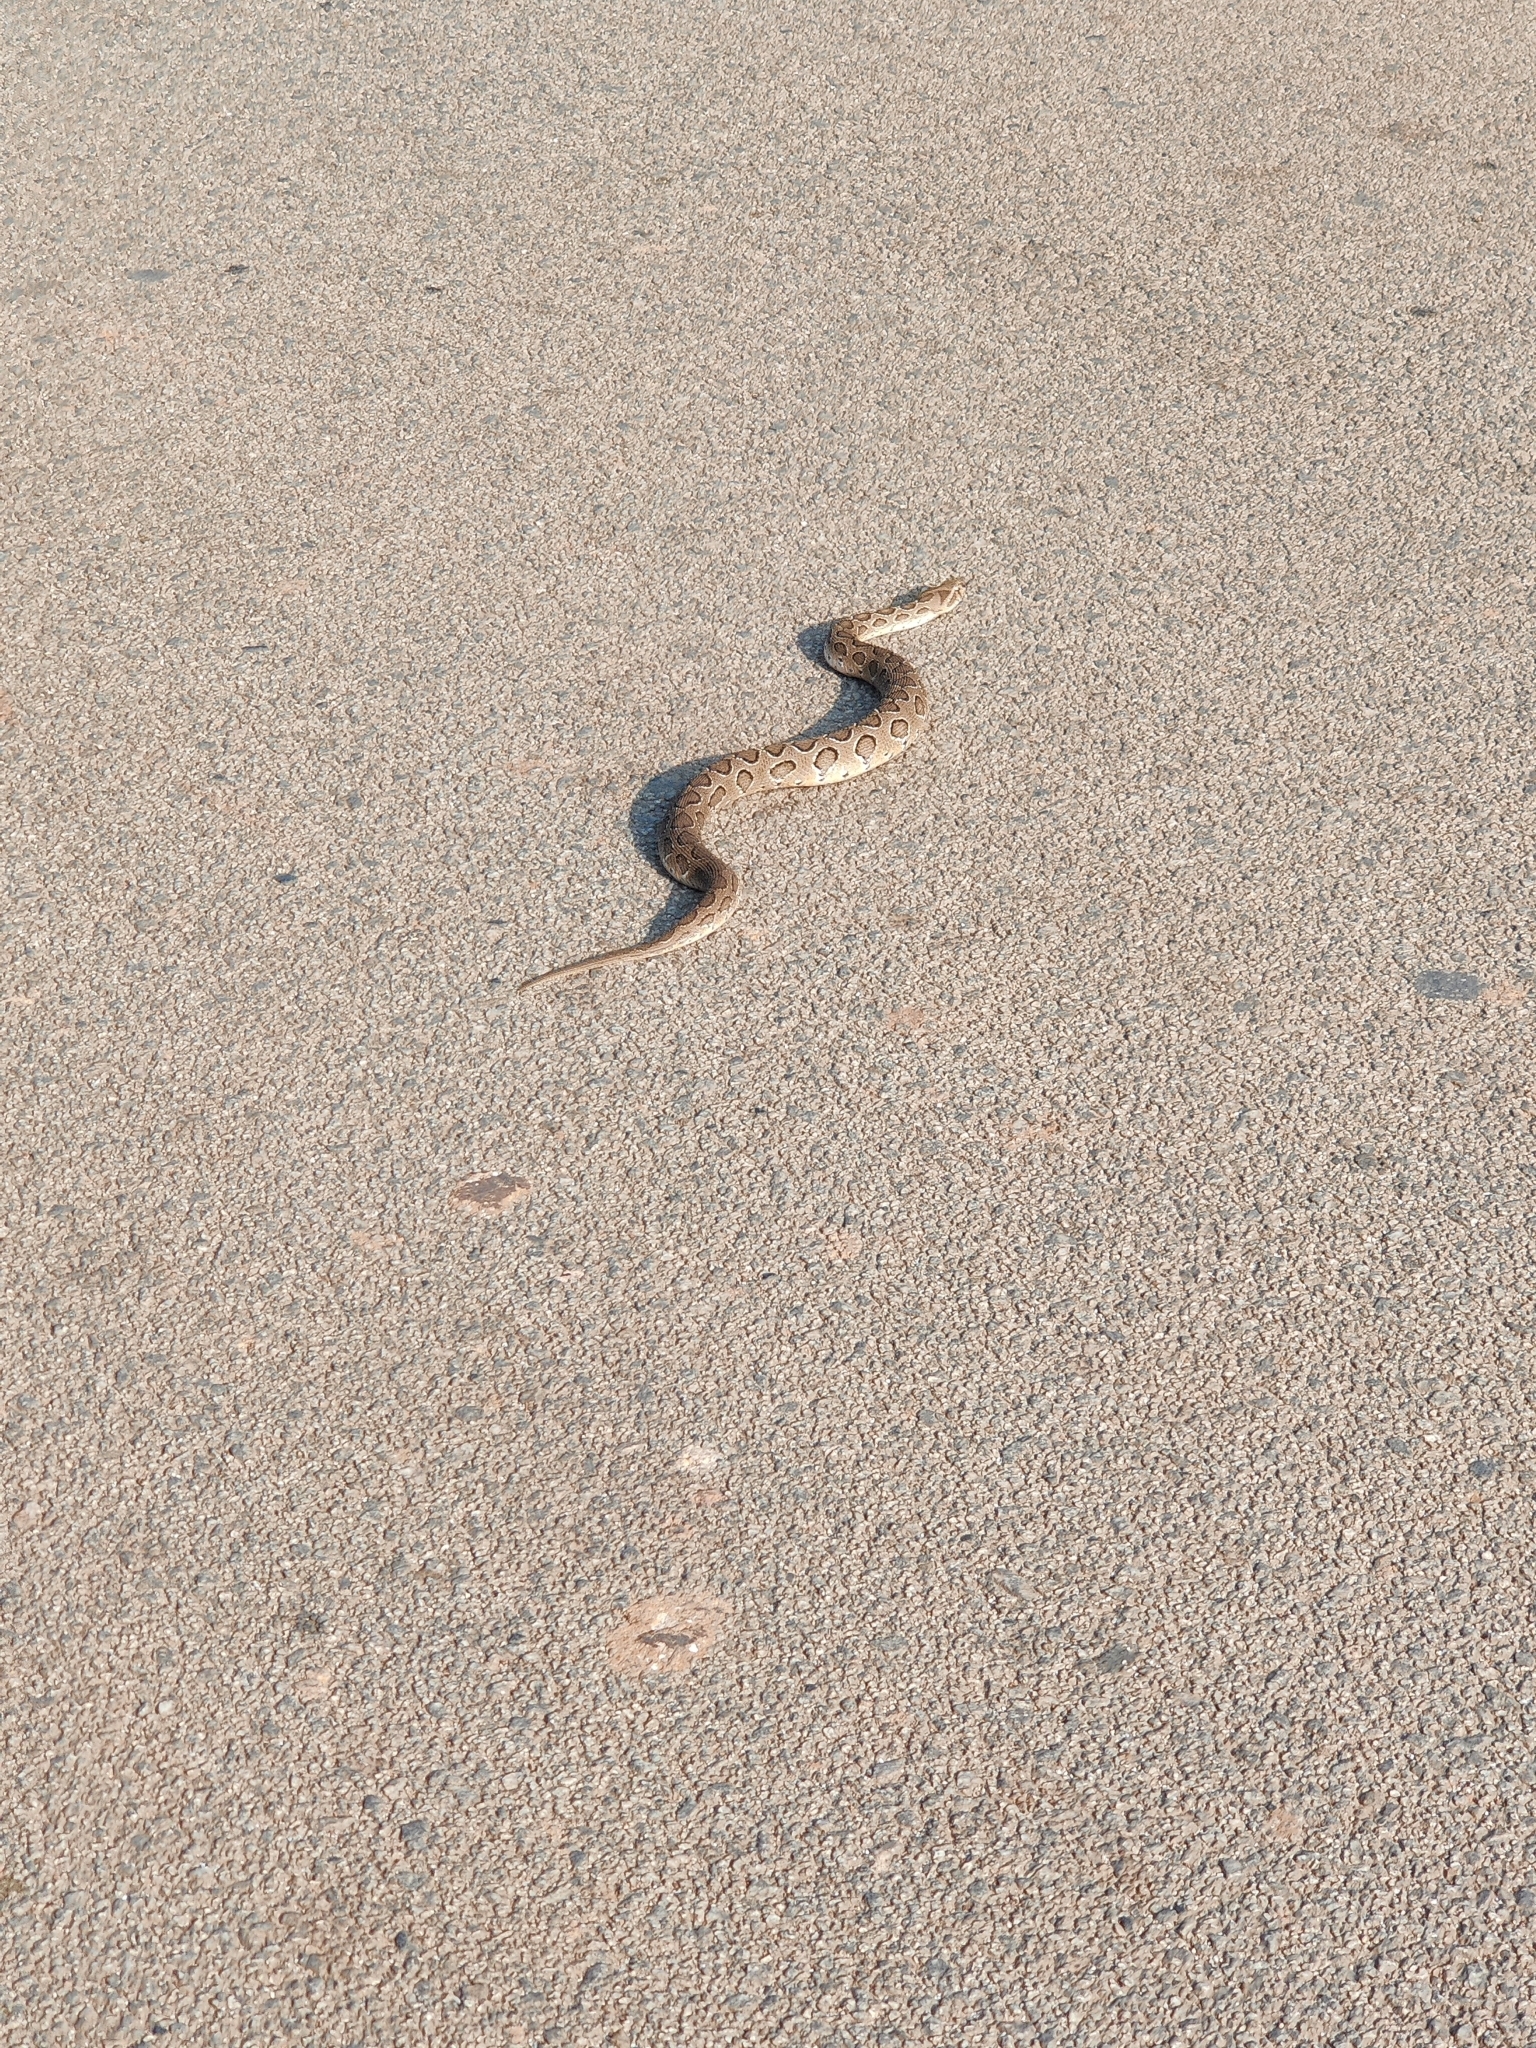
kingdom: Animalia
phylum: Chordata
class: Squamata
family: Viperidae
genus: Daboia
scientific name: Daboia russelii
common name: Western russel’s viper
